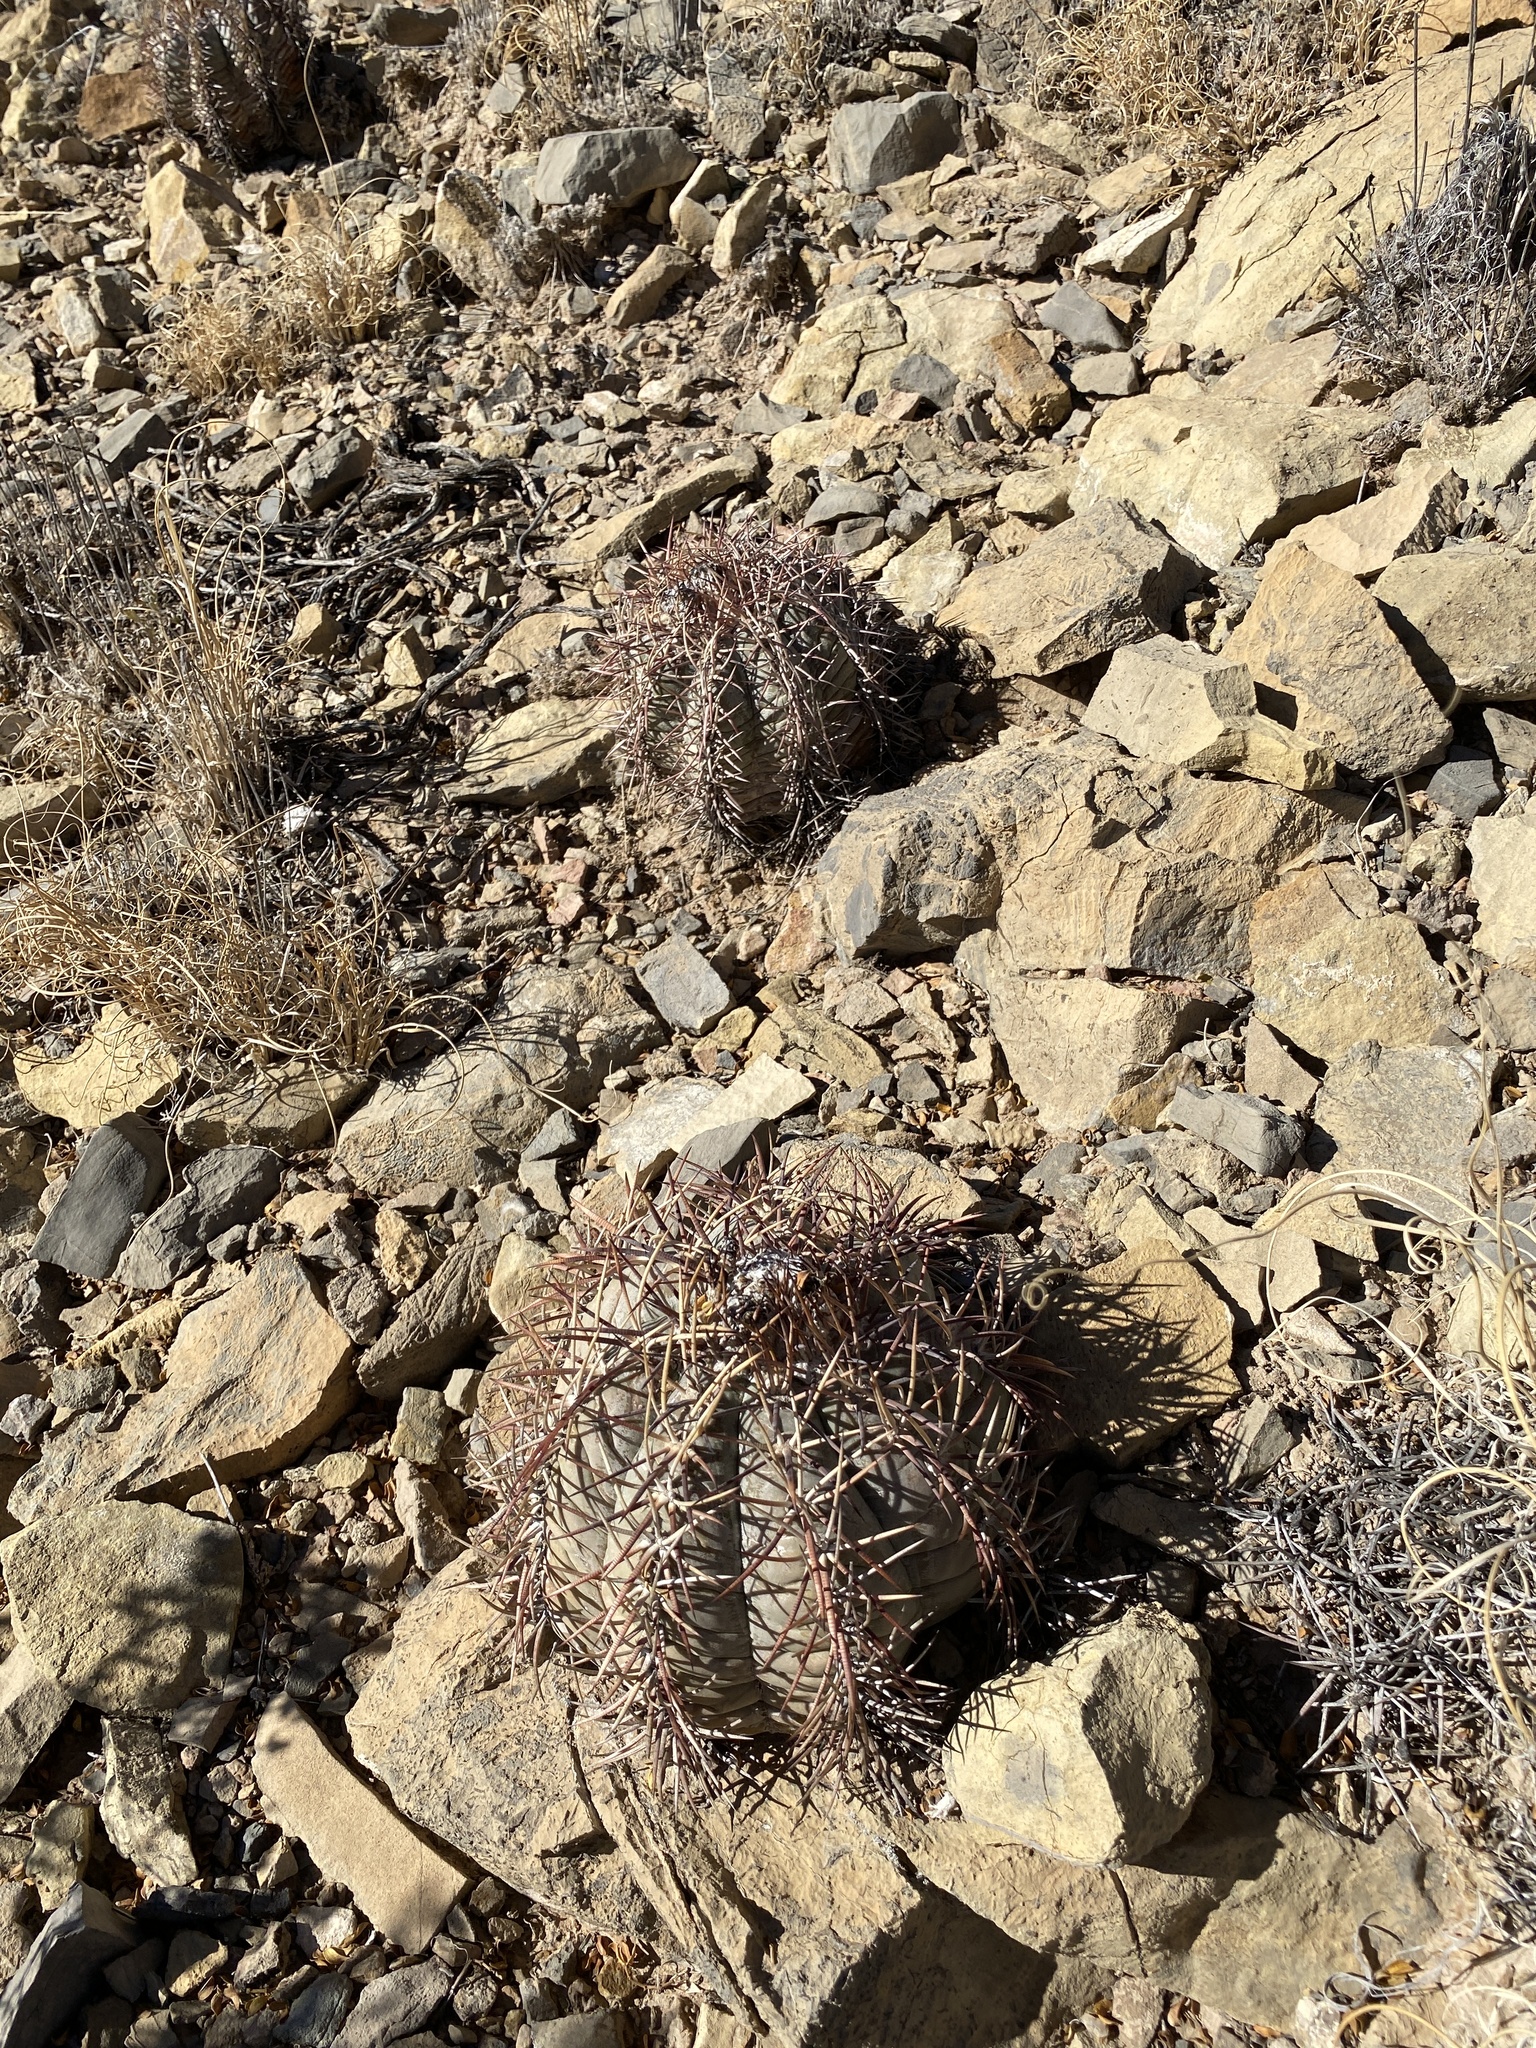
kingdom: Plantae
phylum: Tracheophyta
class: Magnoliopsida
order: Caryophyllales
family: Cactaceae
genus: Echinocactus
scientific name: Echinocactus horizonthalonius
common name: Devilshead
